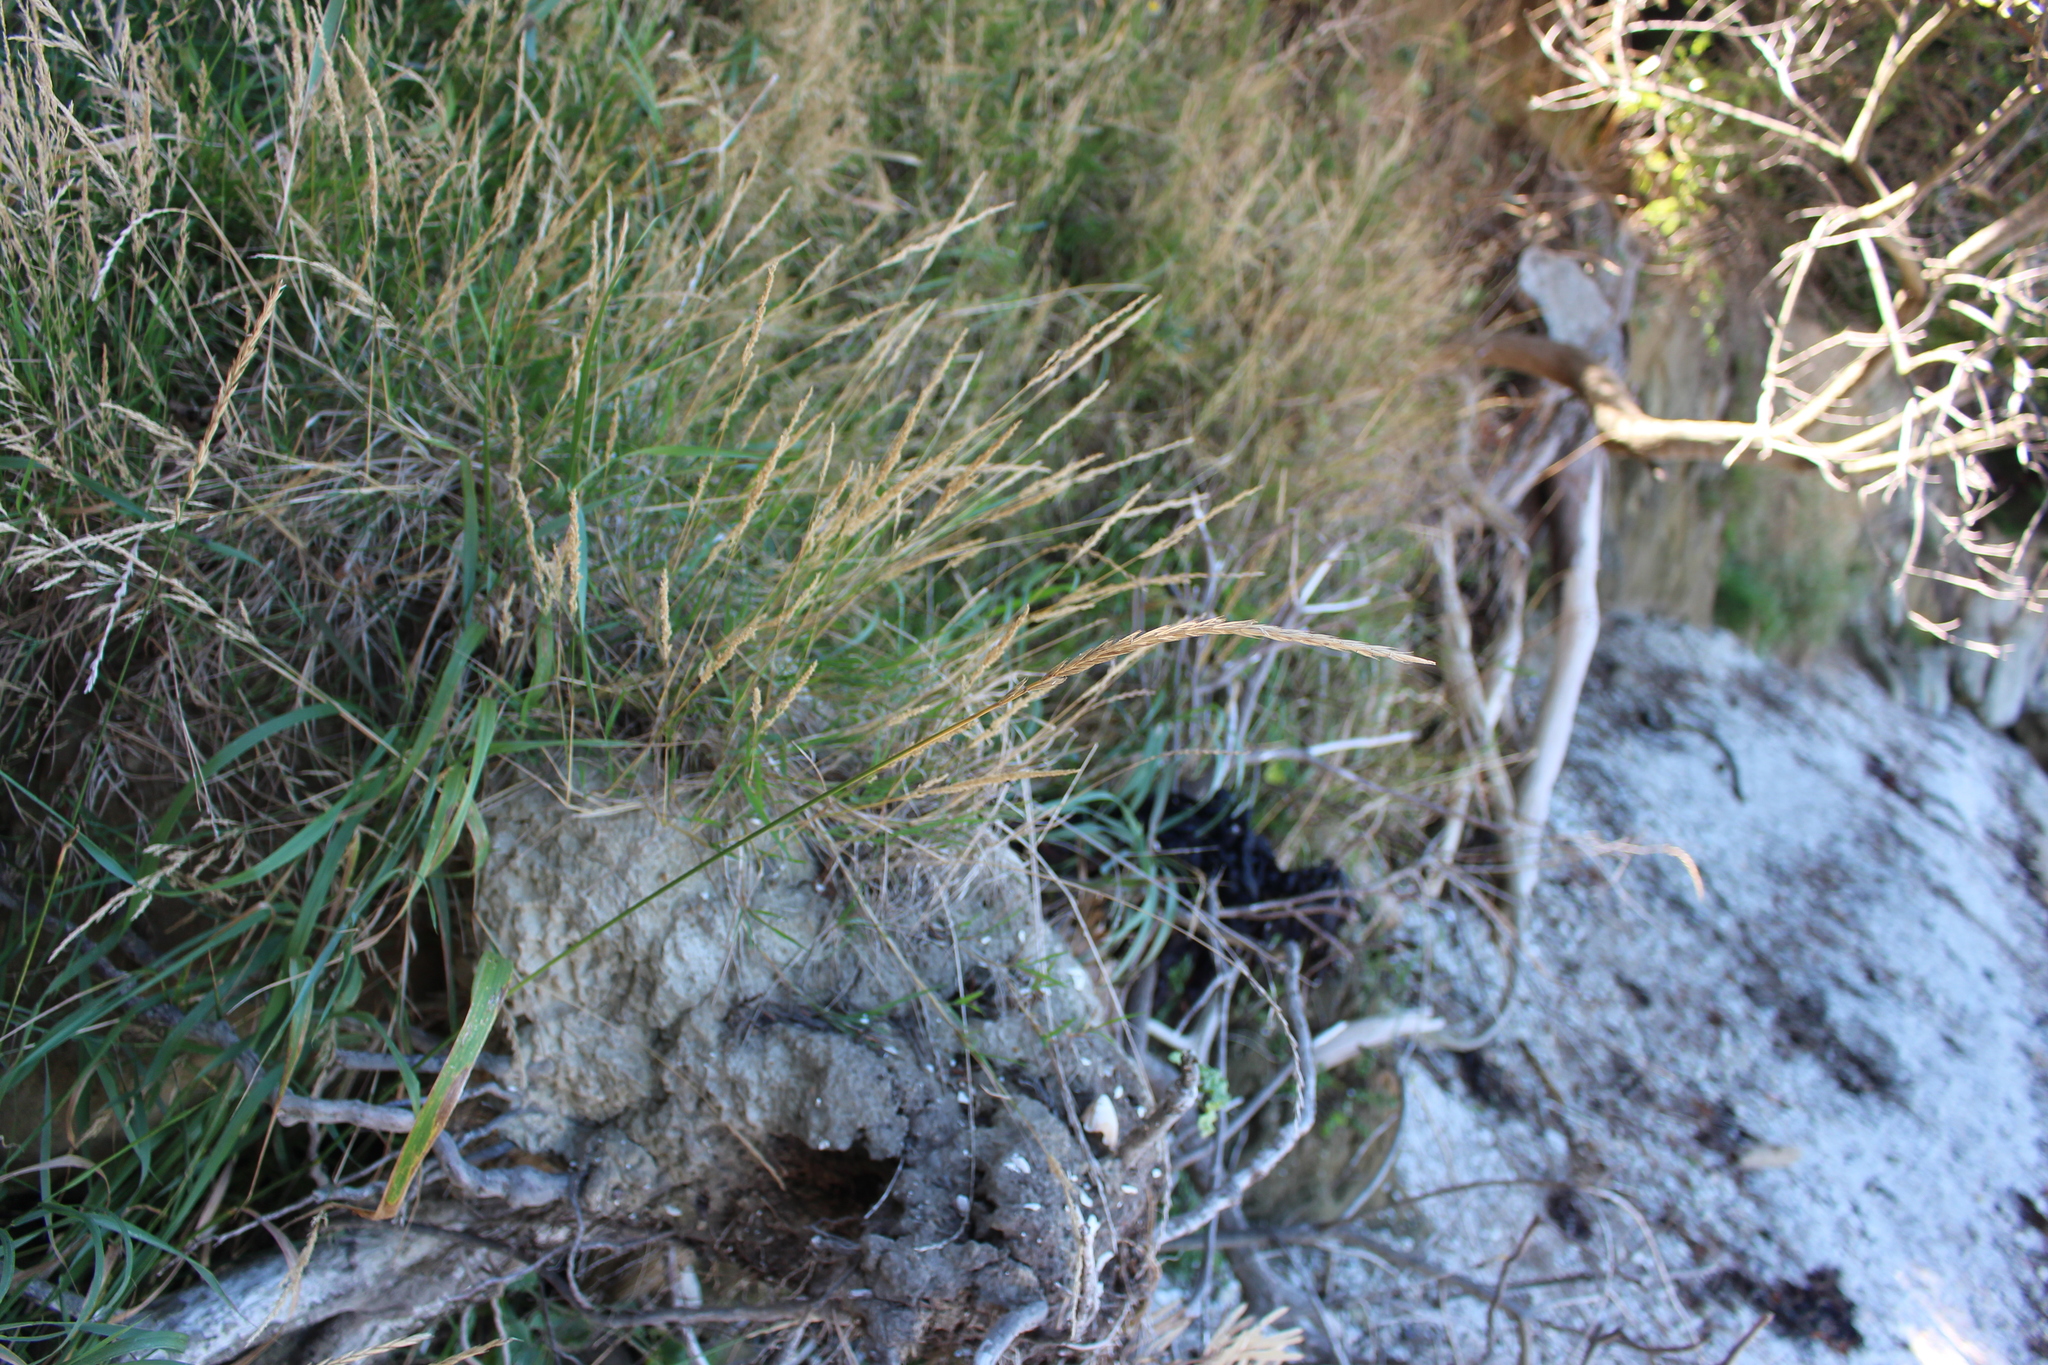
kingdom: Plantae
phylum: Tracheophyta
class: Liliopsida
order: Poales
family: Poaceae
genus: Elymus
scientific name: Elymus repens
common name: Quackgrass
